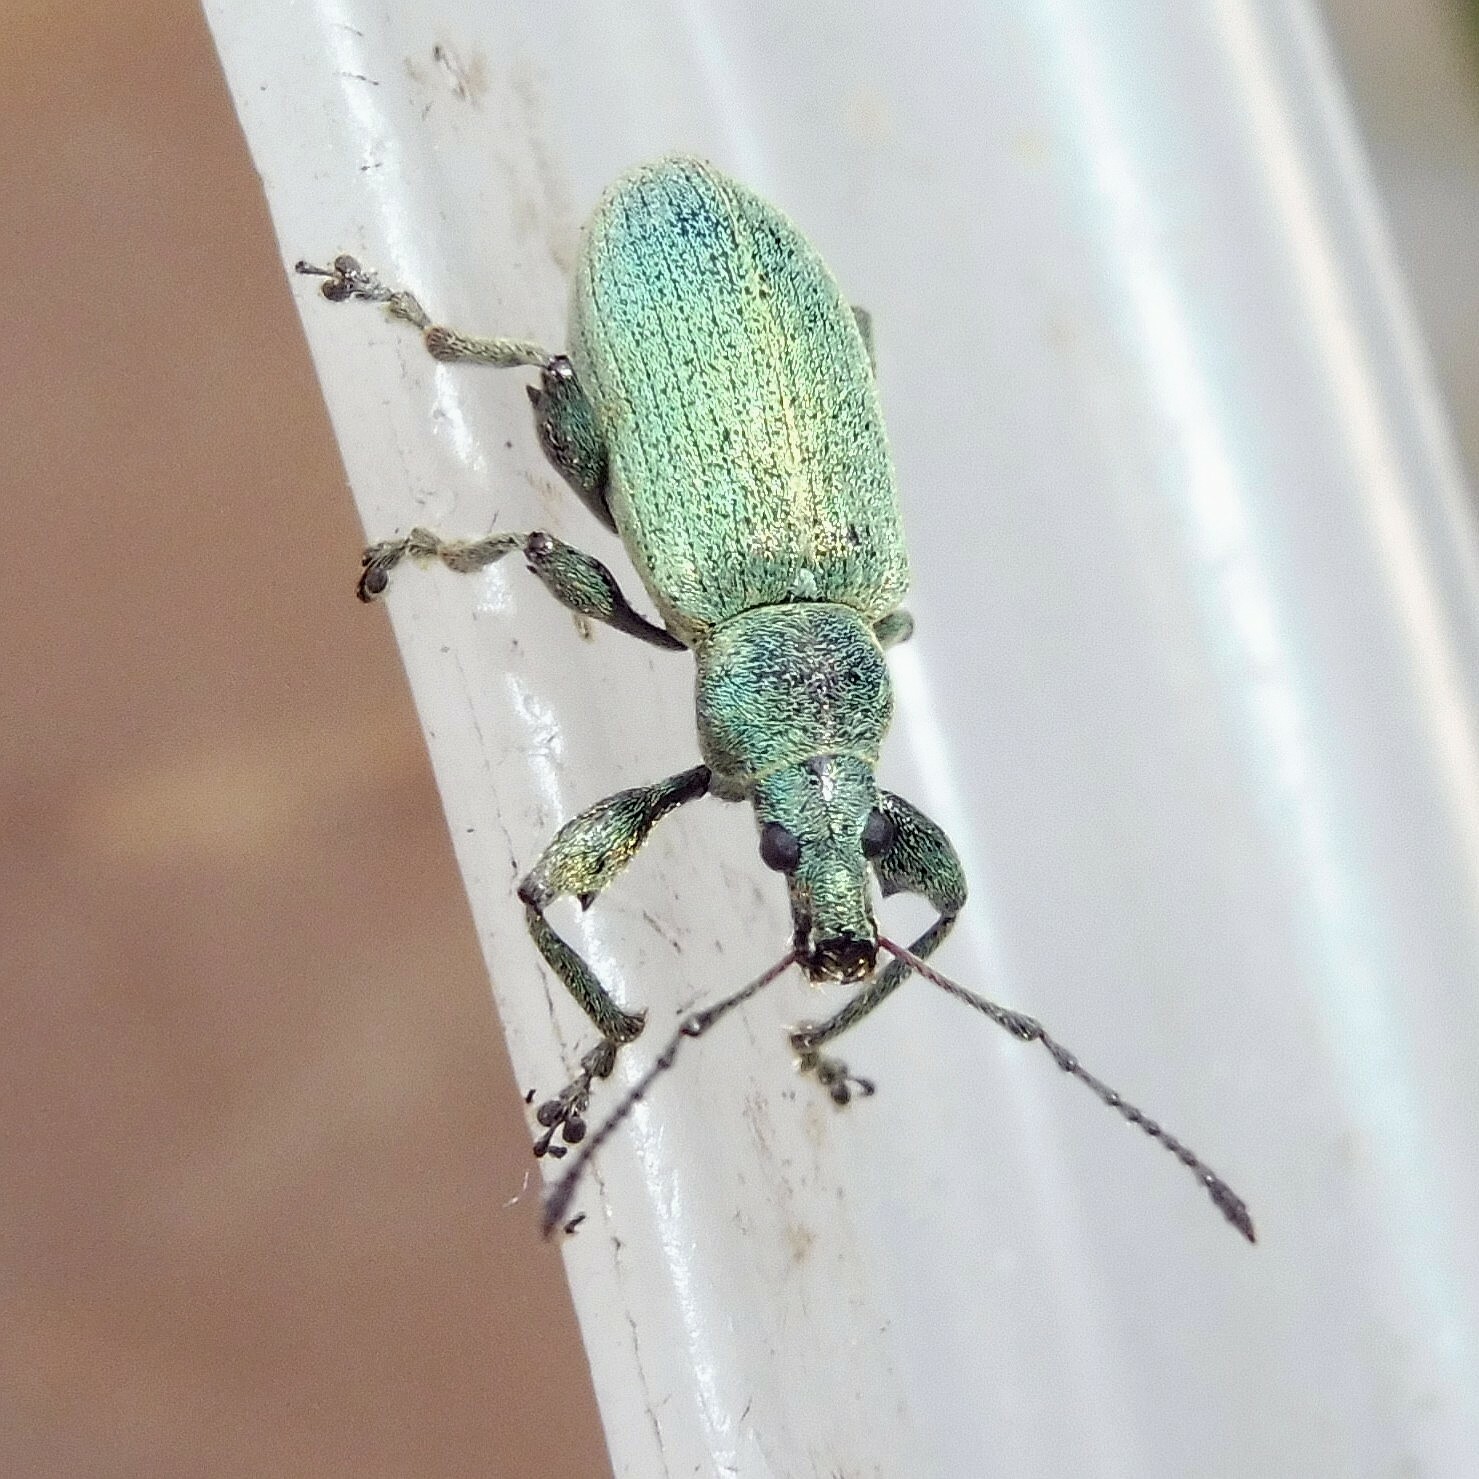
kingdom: Animalia
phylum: Arthropoda
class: Insecta
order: Coleoptera
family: Curculionidae
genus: Phyllobius
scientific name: Phyllobius pomaceus
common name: Green nettle weevil
